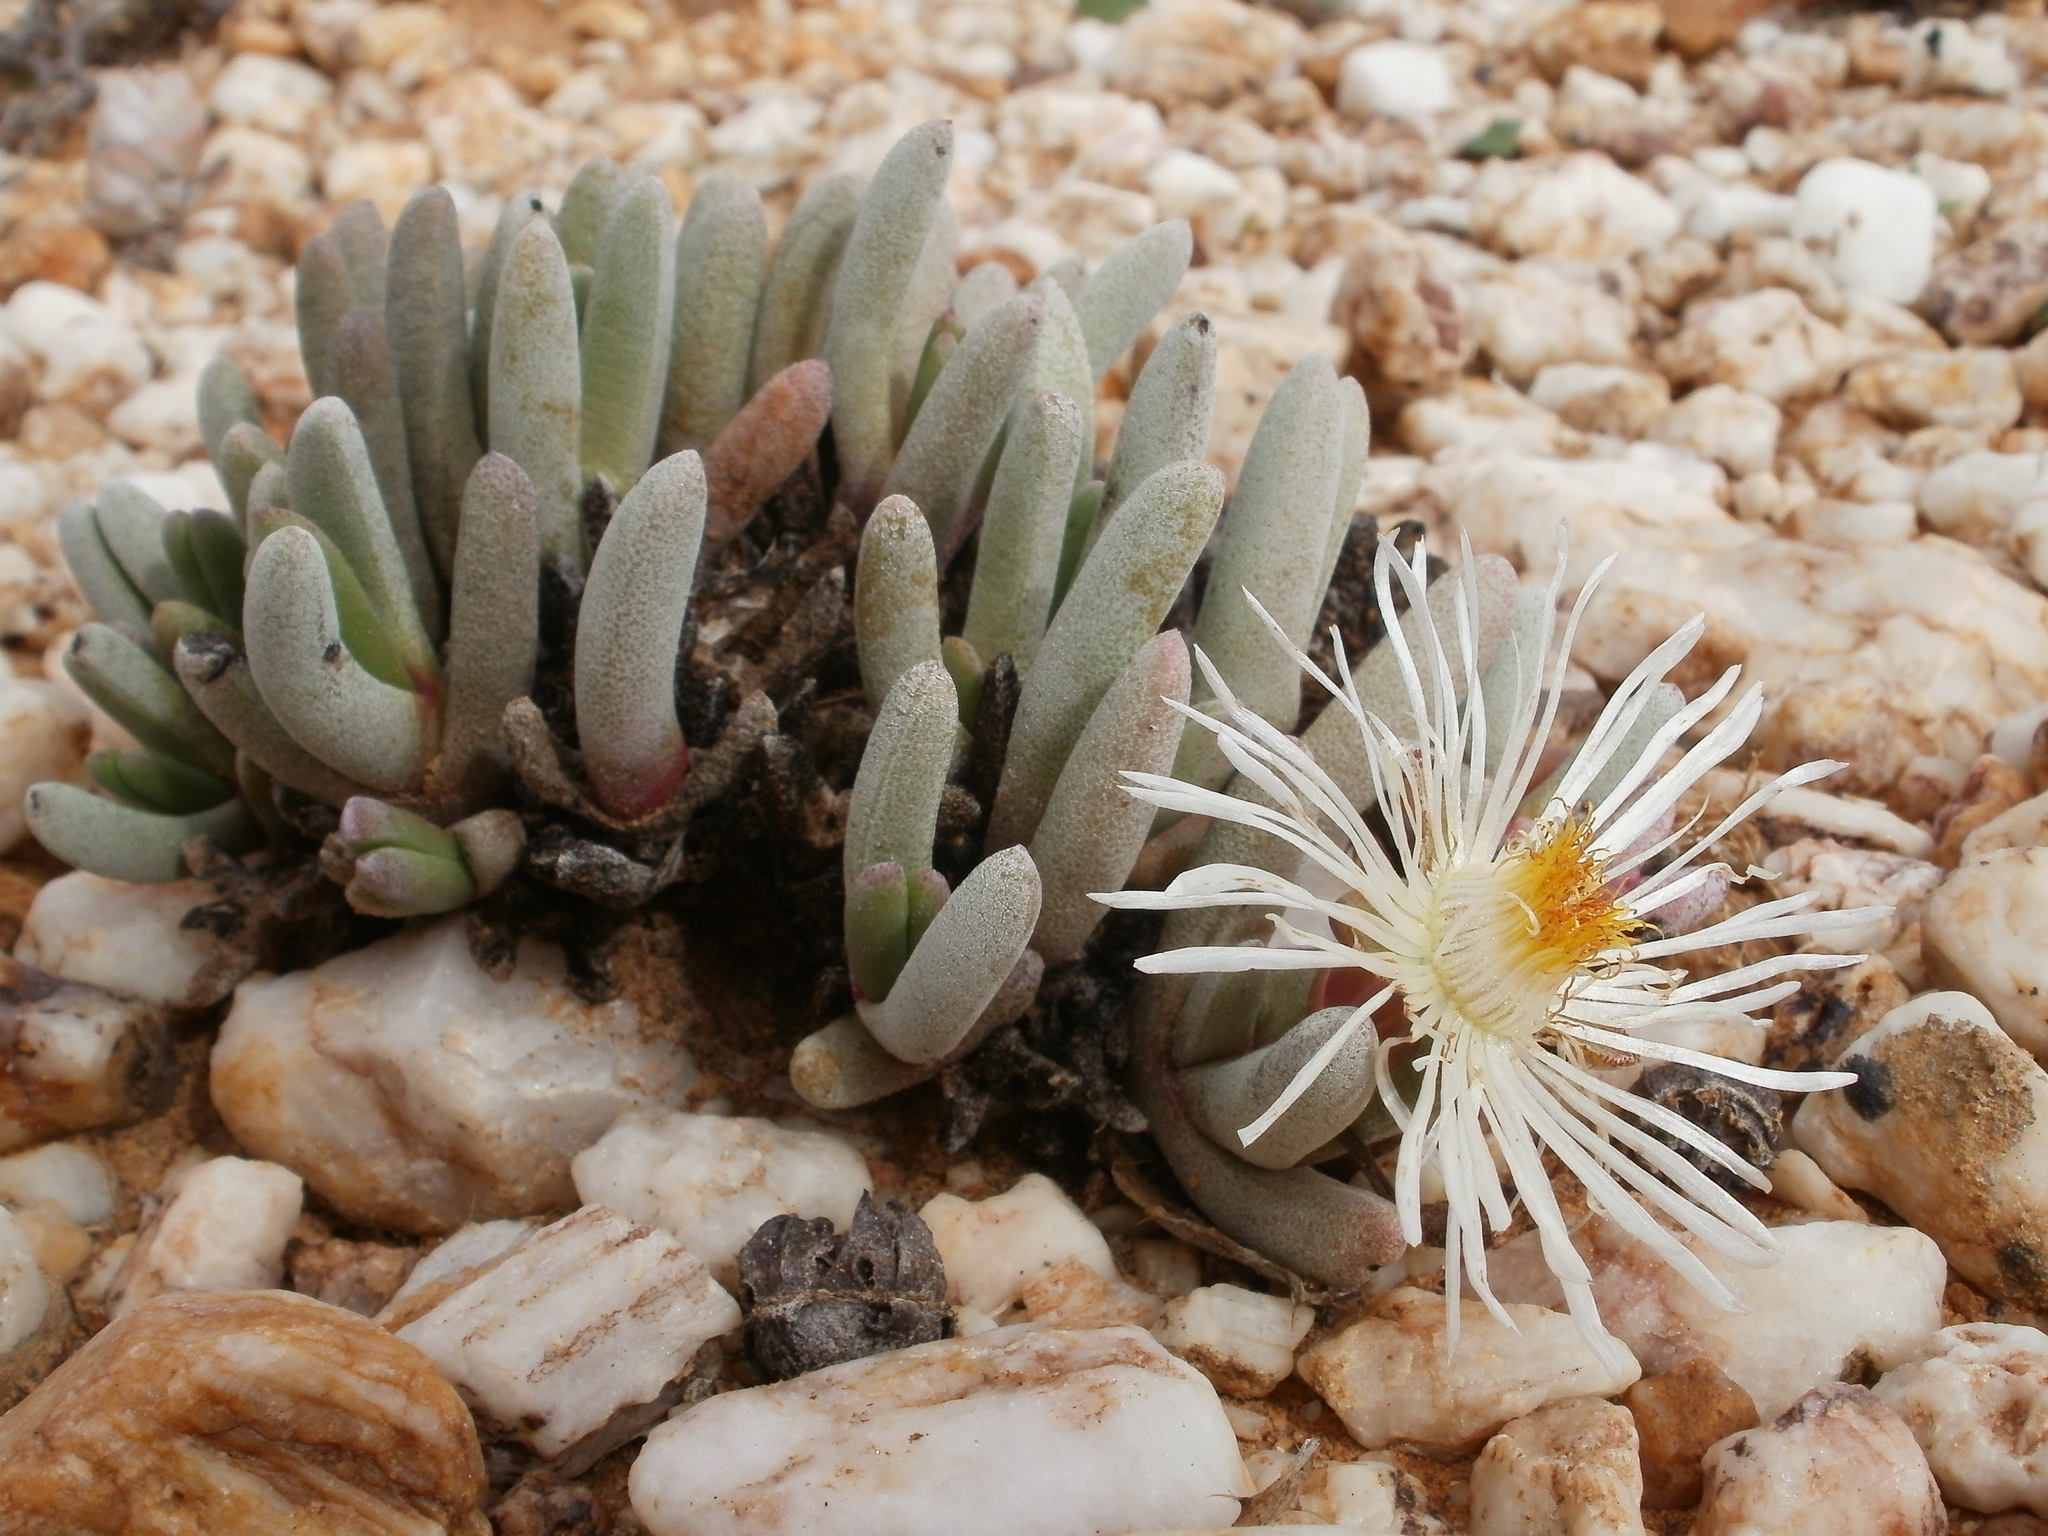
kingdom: Plantae
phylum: Tracheophyta
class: Magnoliopsida
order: Caryophyllales
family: Aizoaceae
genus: Cephalophyllum
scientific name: Cephalophyllum griseum
